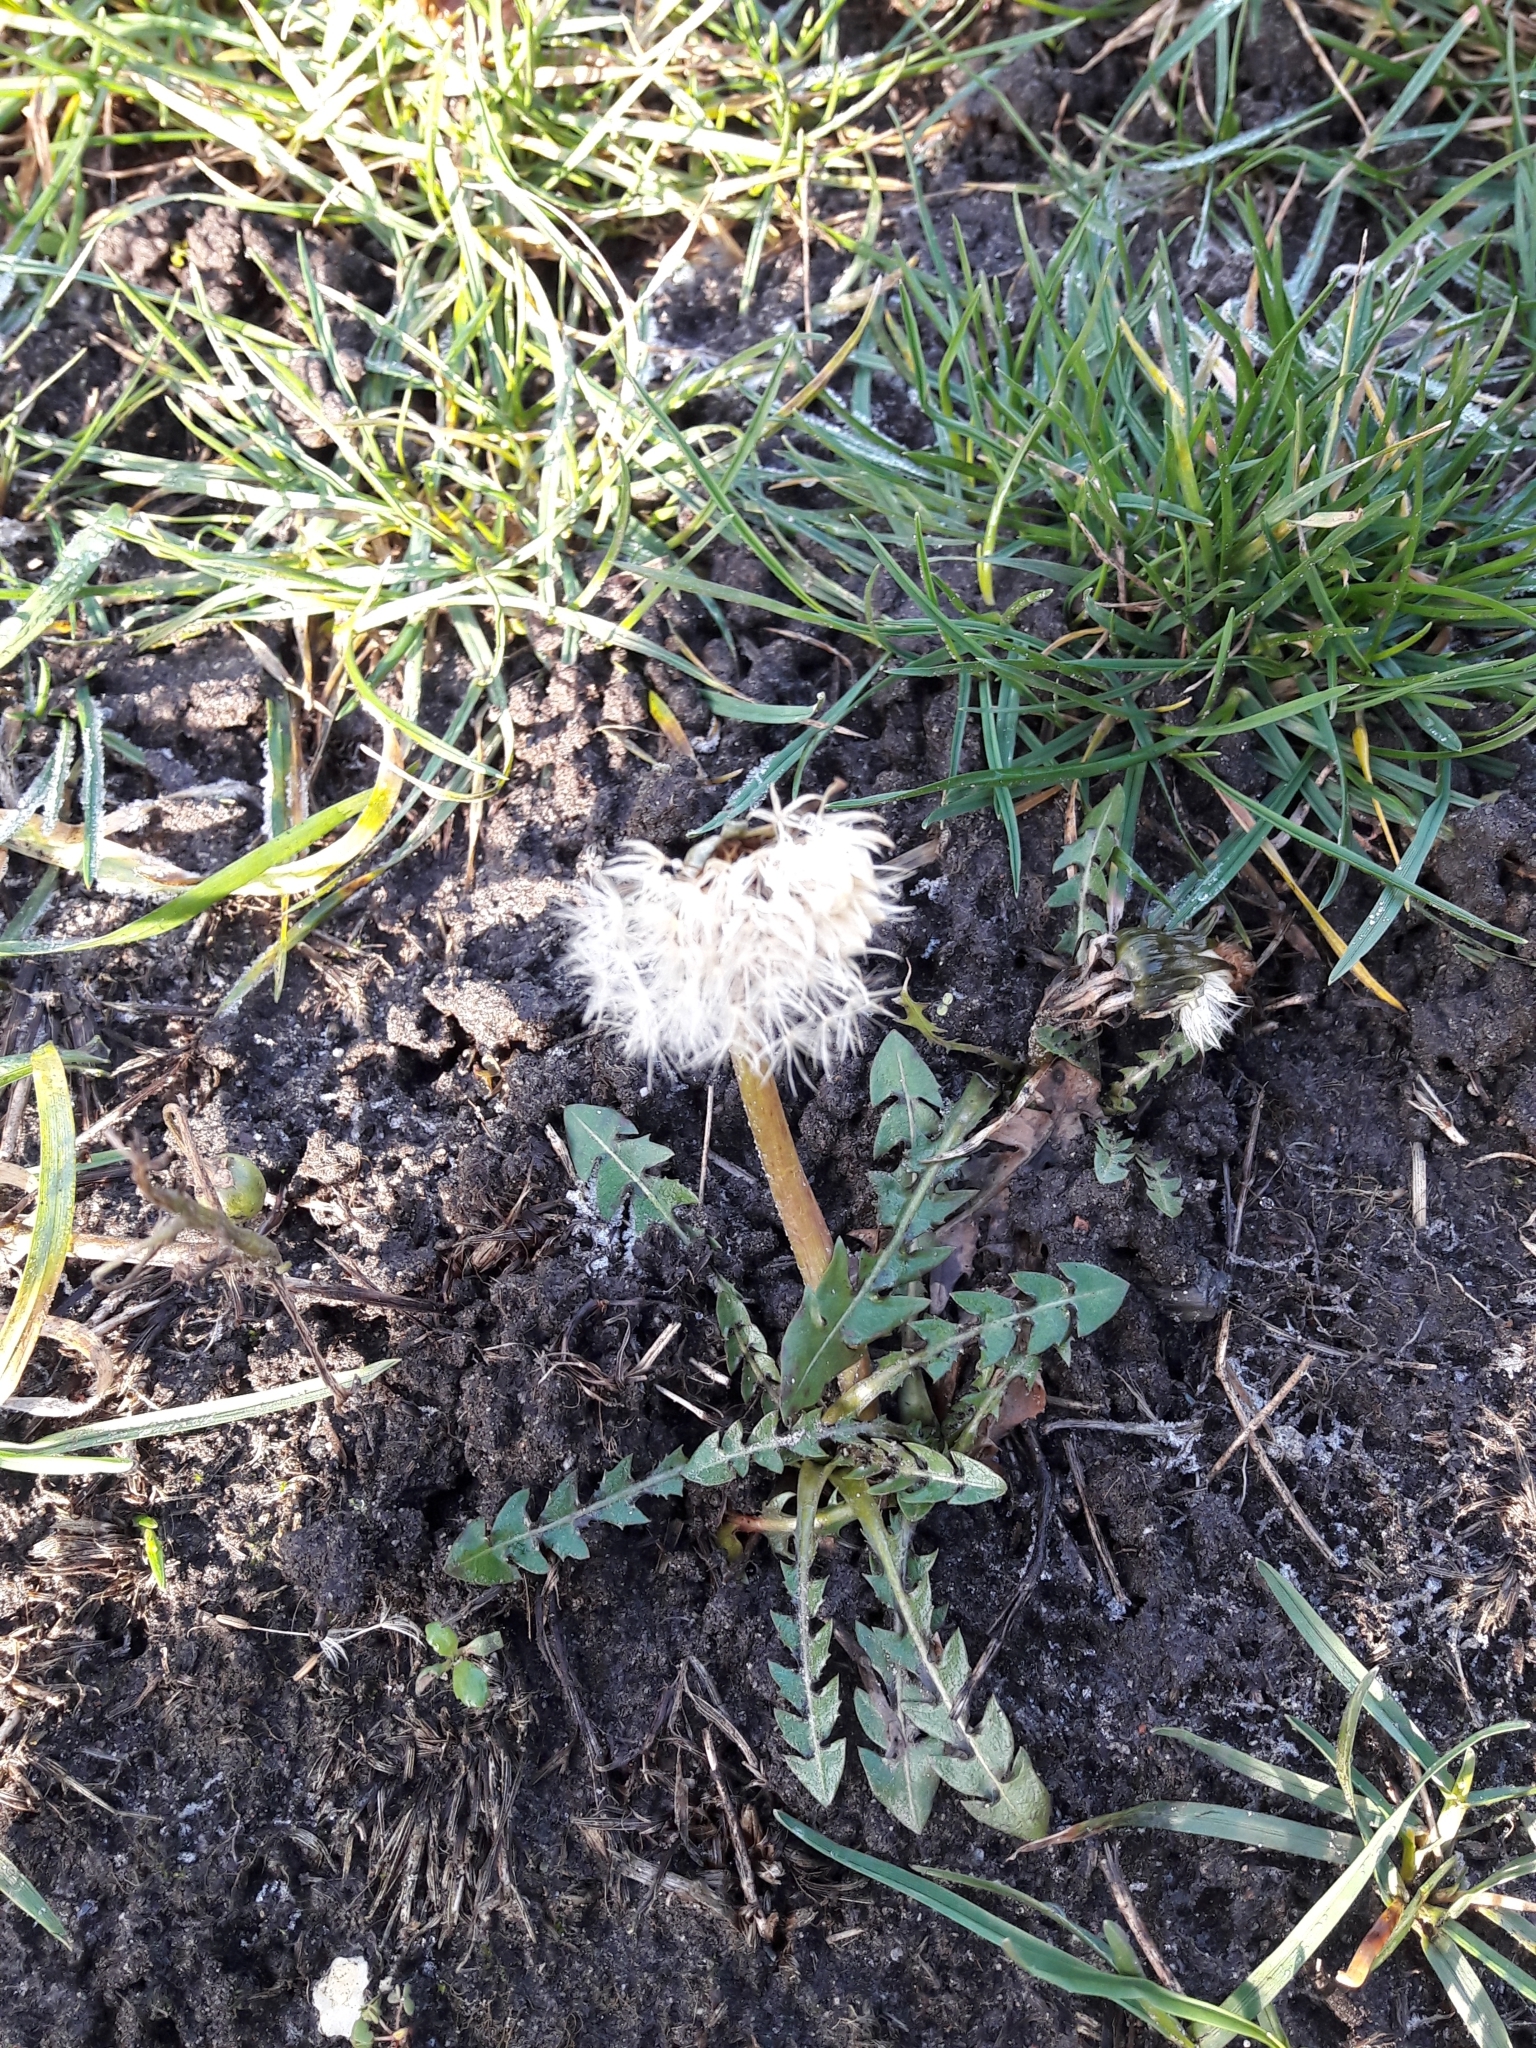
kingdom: Plantae
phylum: Tracheophyta
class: Magnoliopsida
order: Asterales
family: Asteraceae
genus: Taraxacum
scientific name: Taraxacum officinale
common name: Common dandelion
